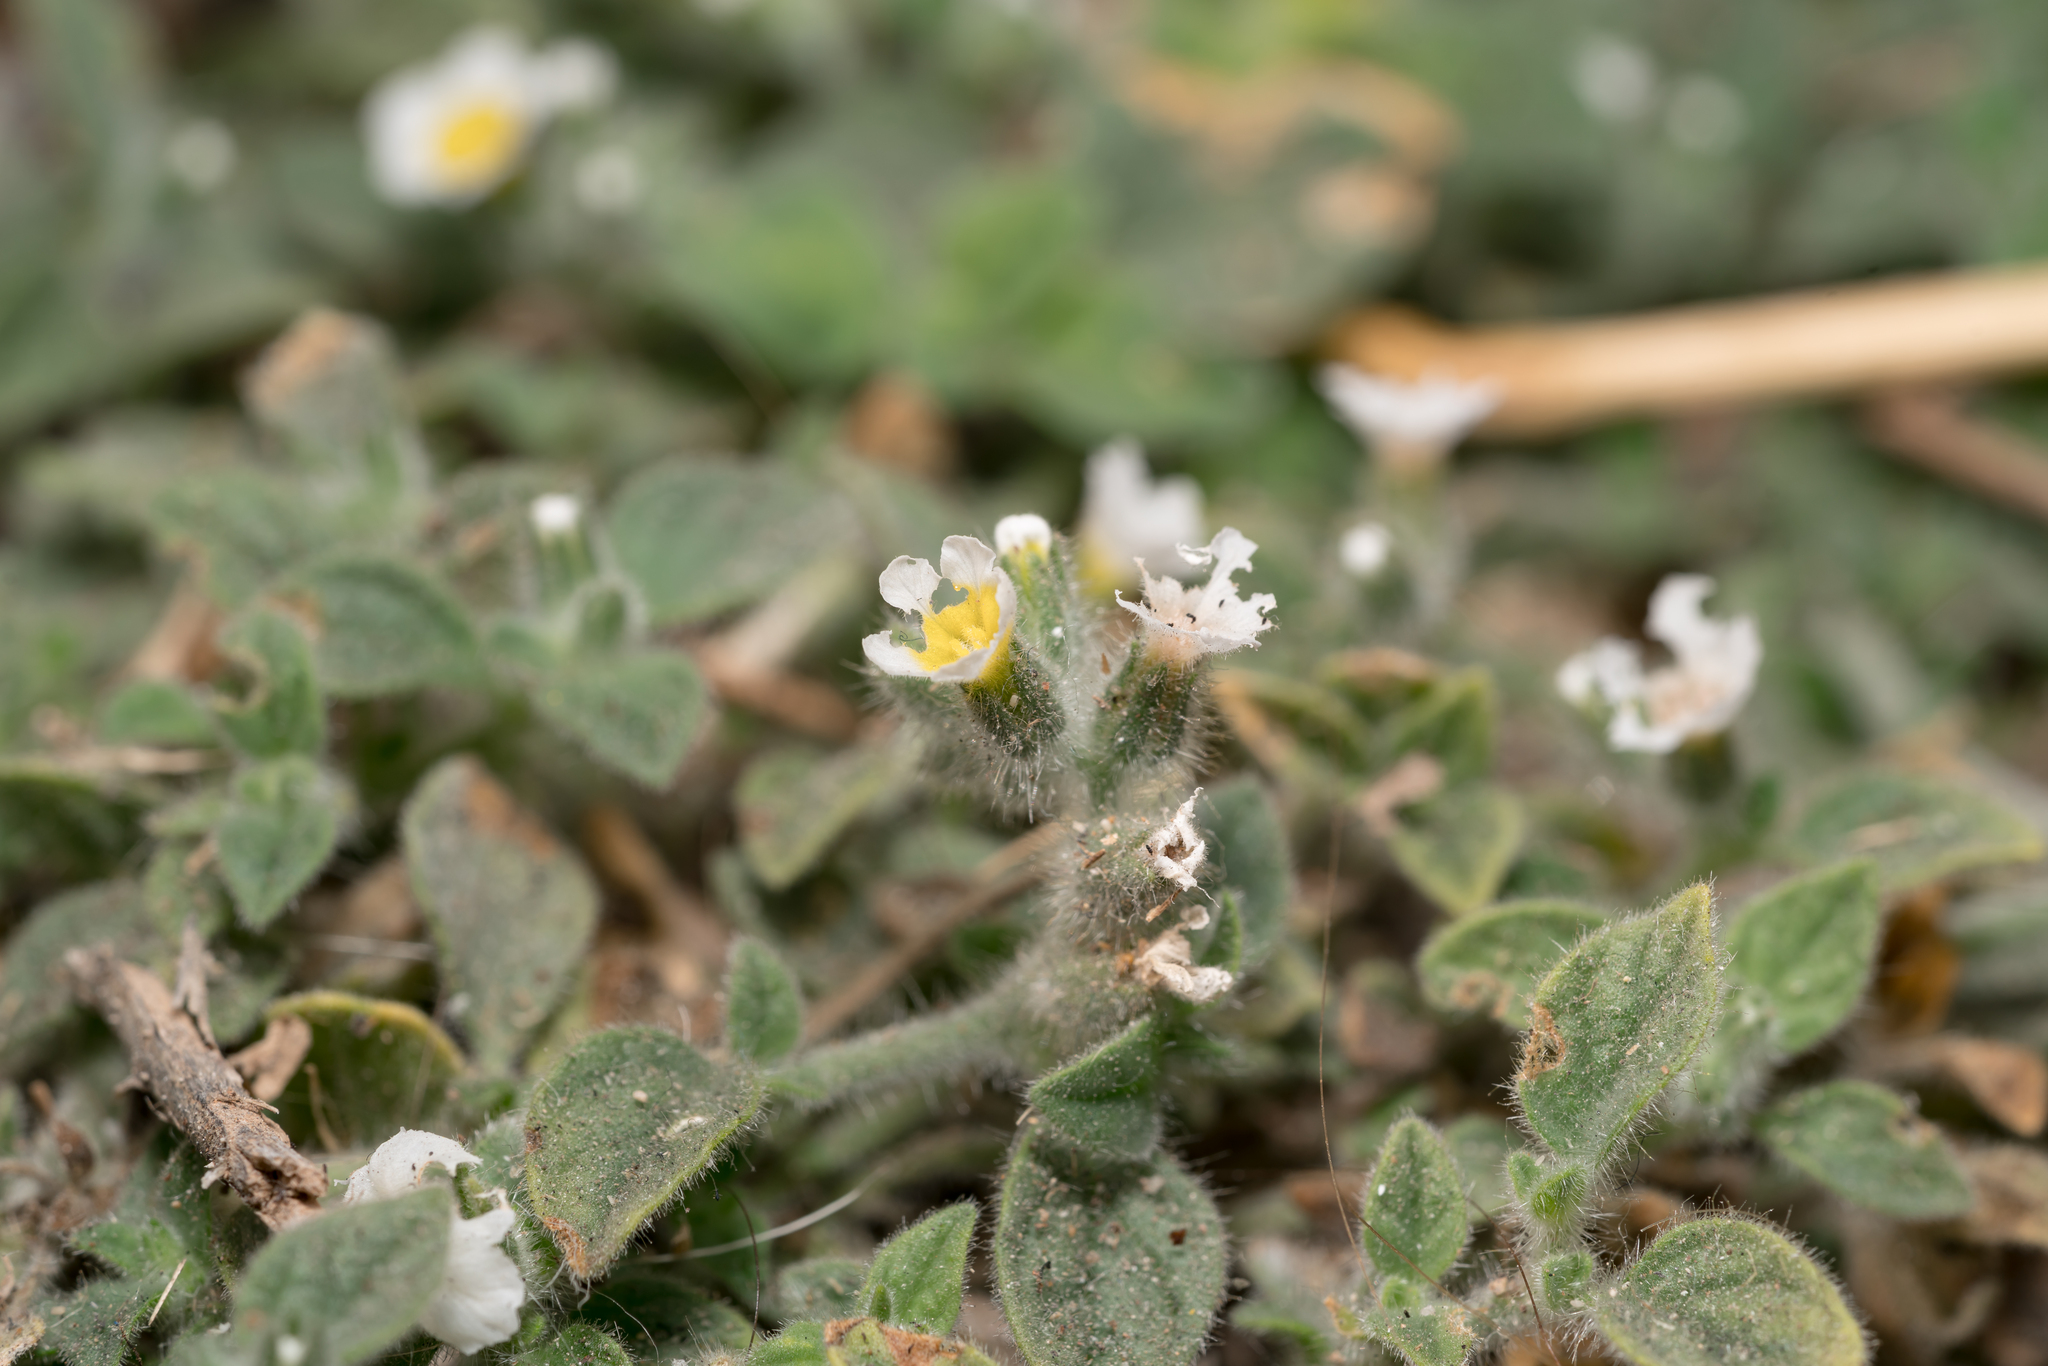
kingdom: Plantae
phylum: Tracheophyta
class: Magnoliopsida
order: Boraginales
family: Heliotropiaceae
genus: Heliotropium
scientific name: Heliotropium hirsutissimum
